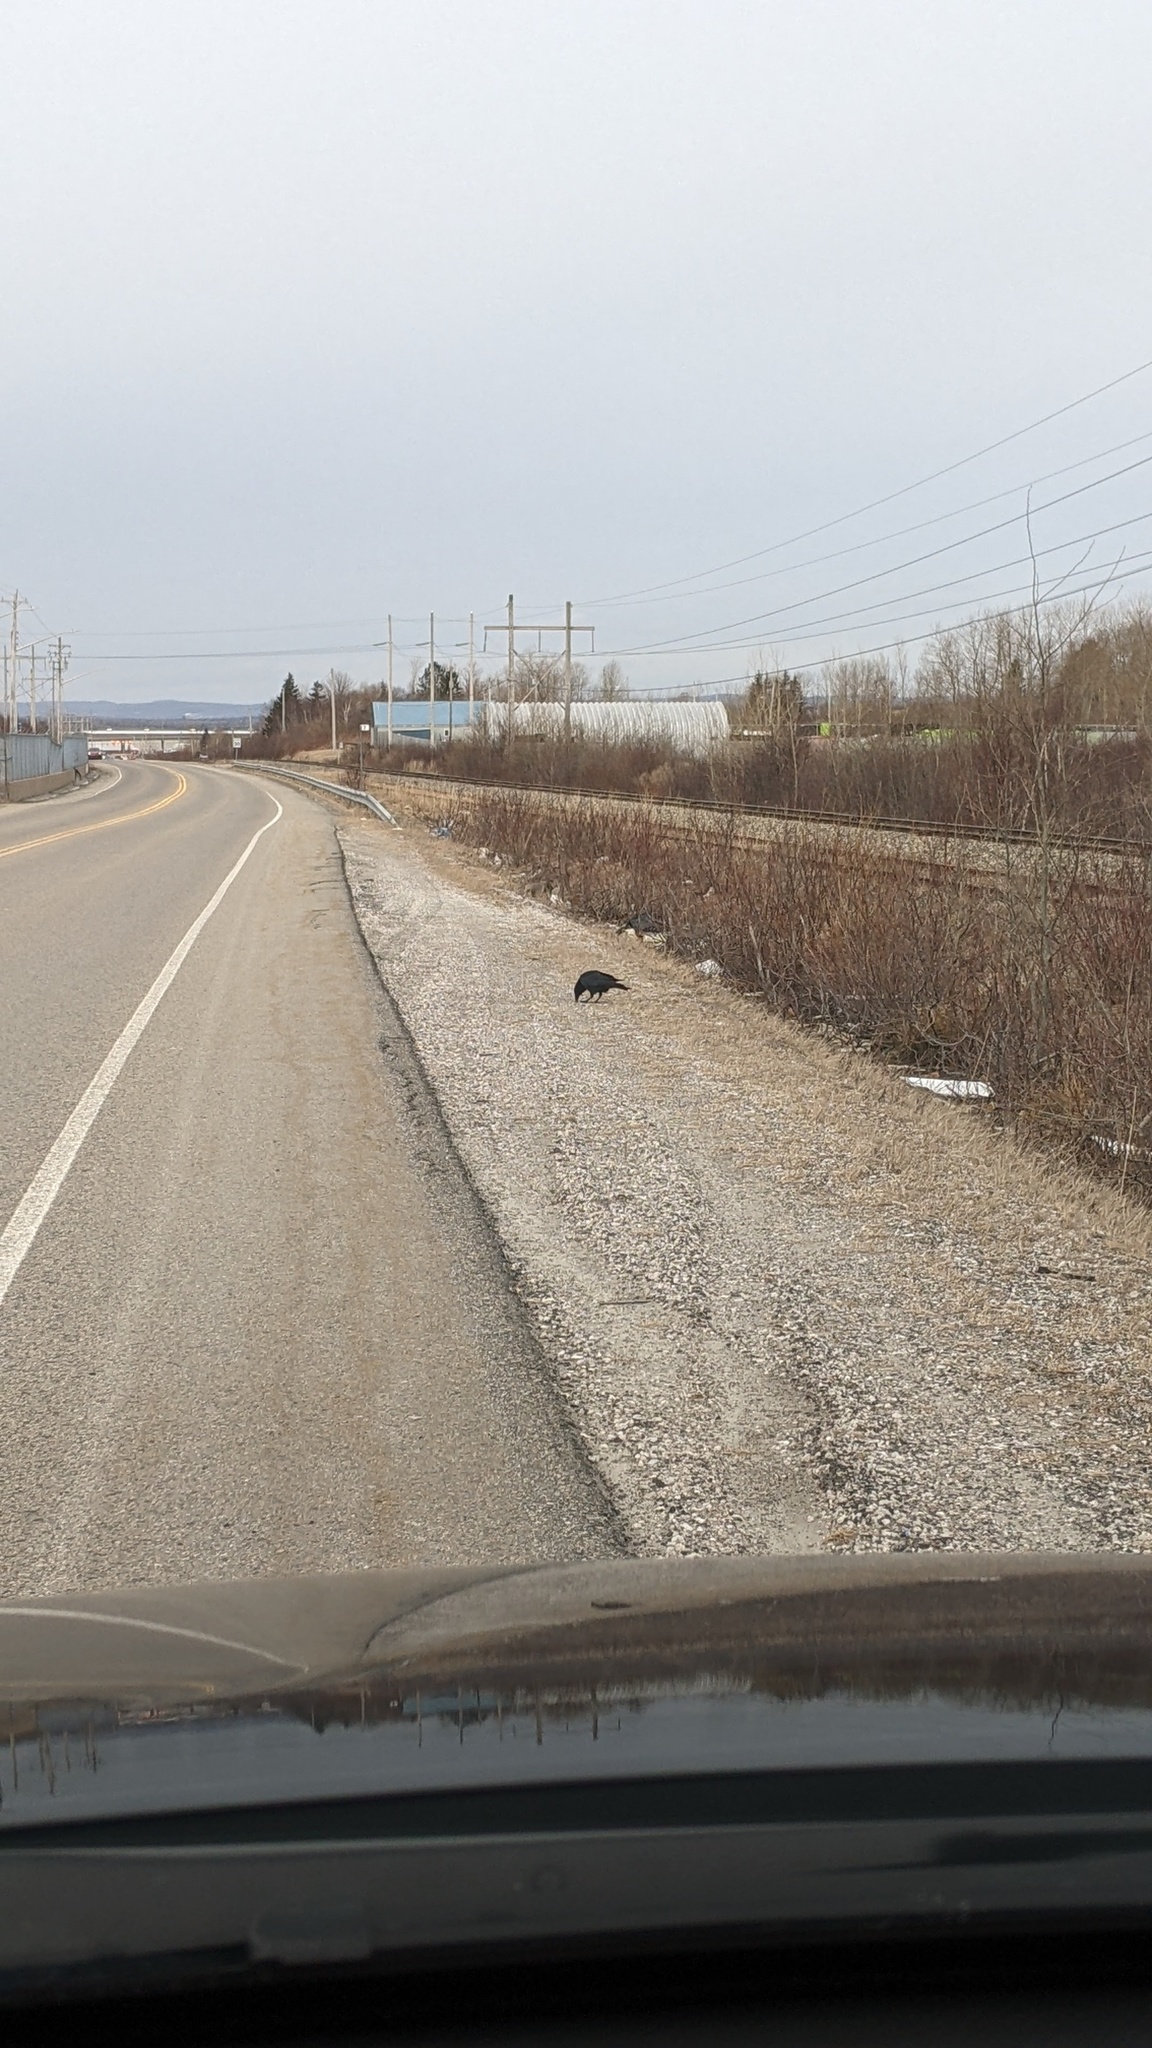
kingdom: Animalia
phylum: Chordata
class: Aves
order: Passeriformes
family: Corvidae
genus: Corvus
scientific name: Corvus brachyrhynchos
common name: American crow
